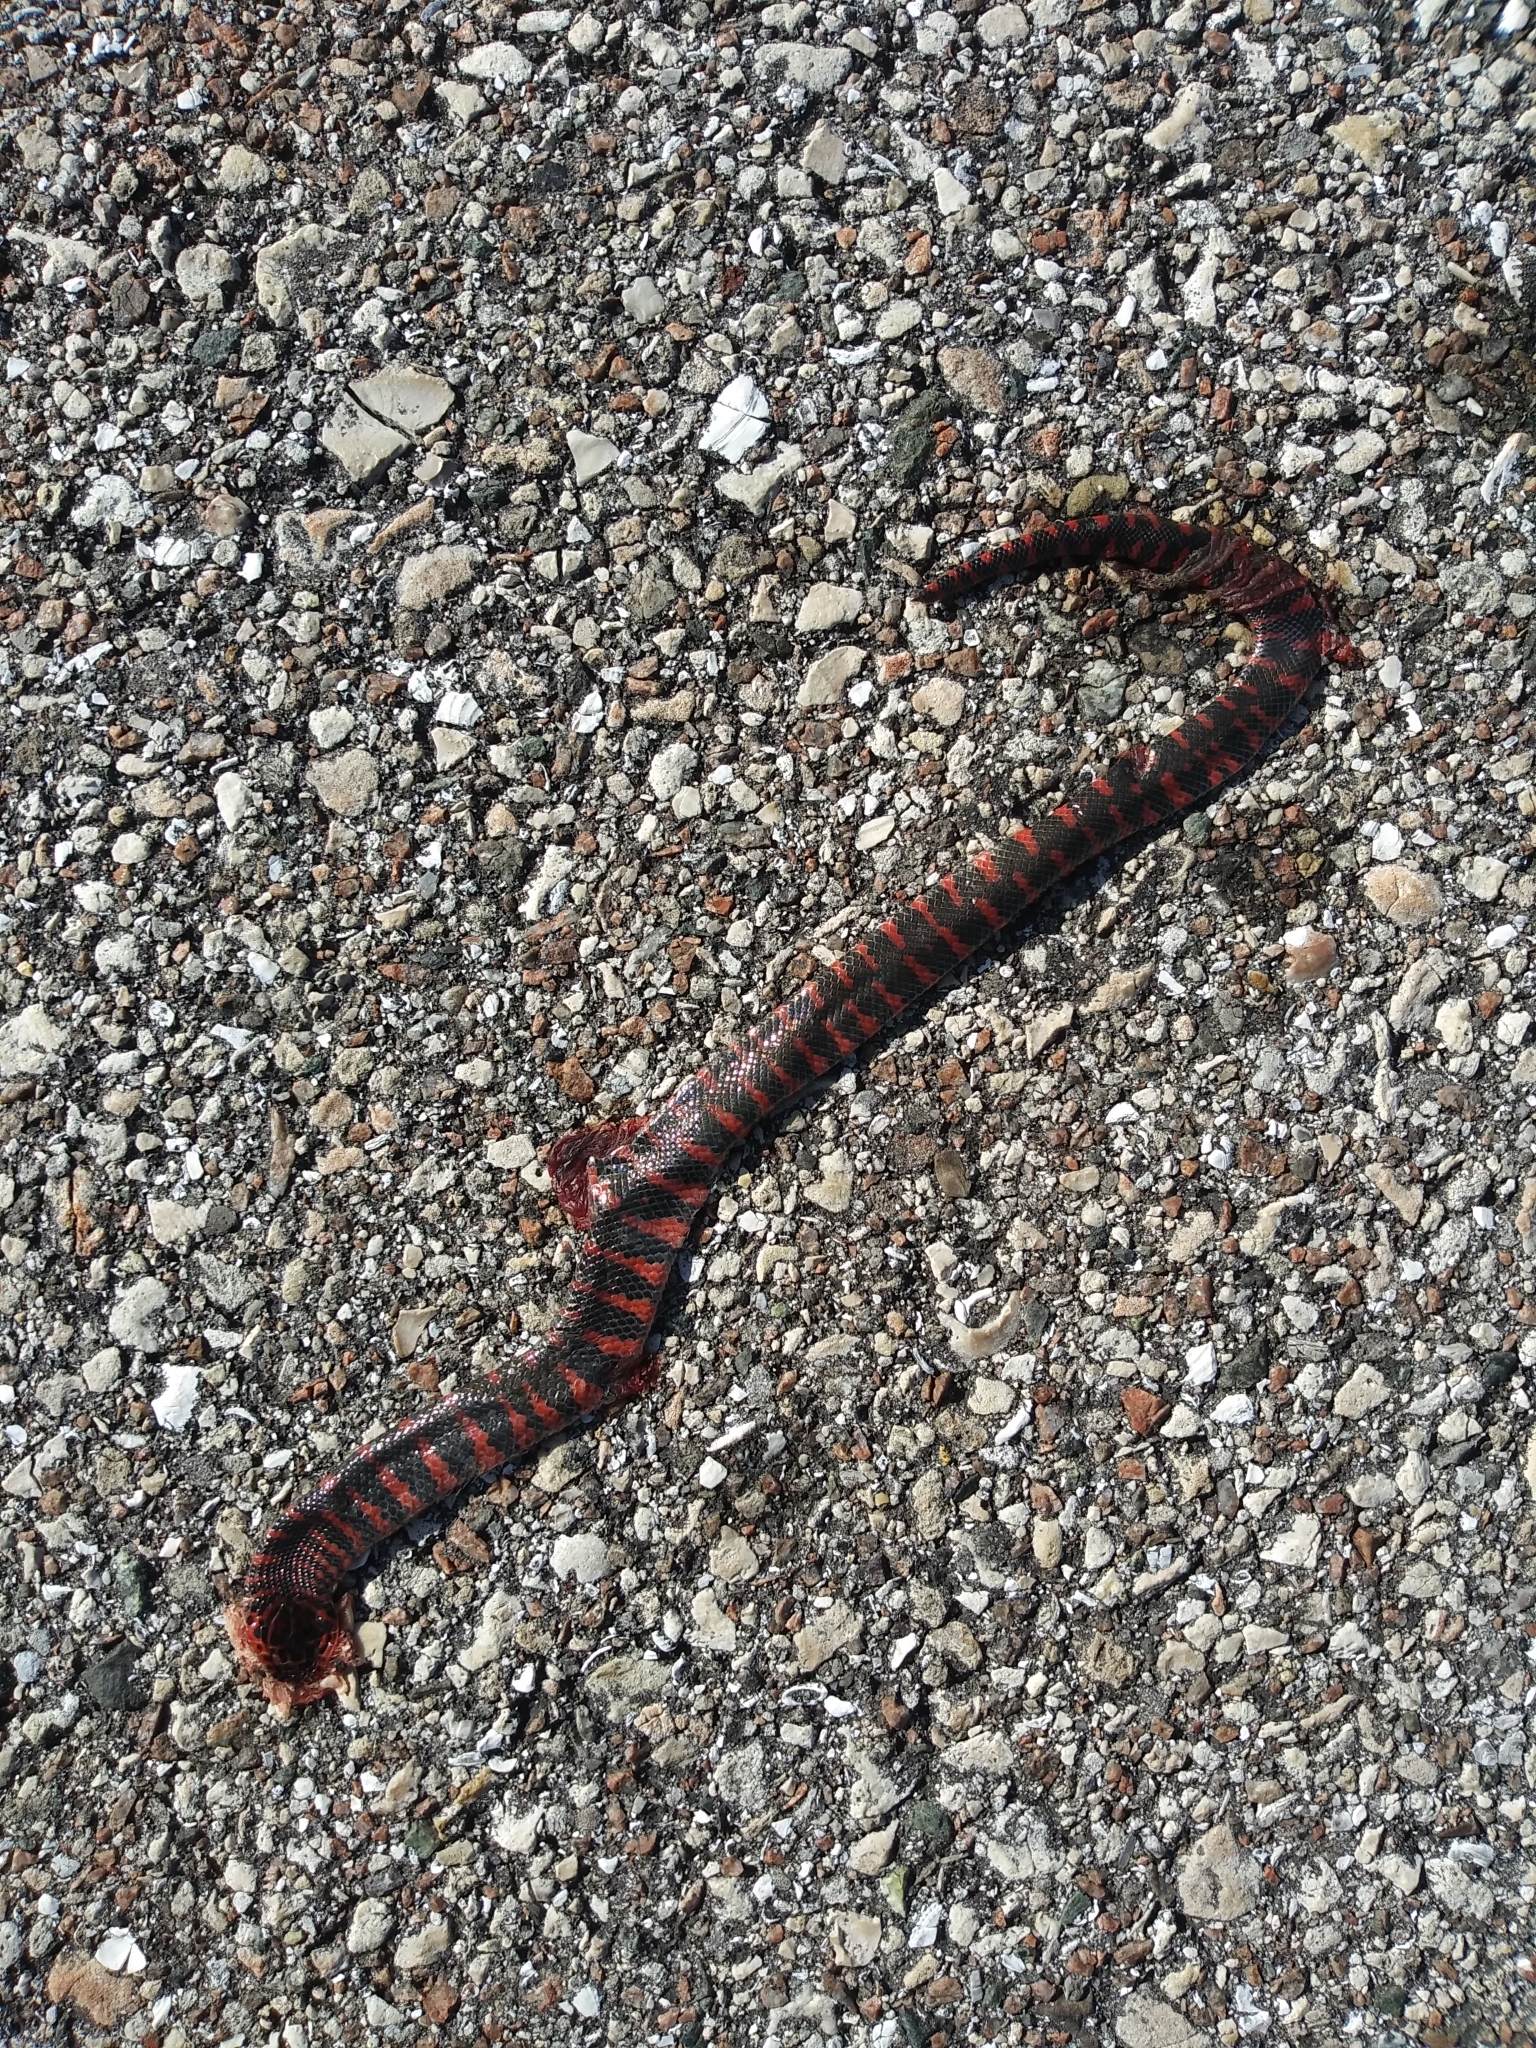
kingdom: Animalia
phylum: Chordata
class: Squamata
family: Colubridae
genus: Farancia
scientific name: Farancia abacura
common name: Mud snake
